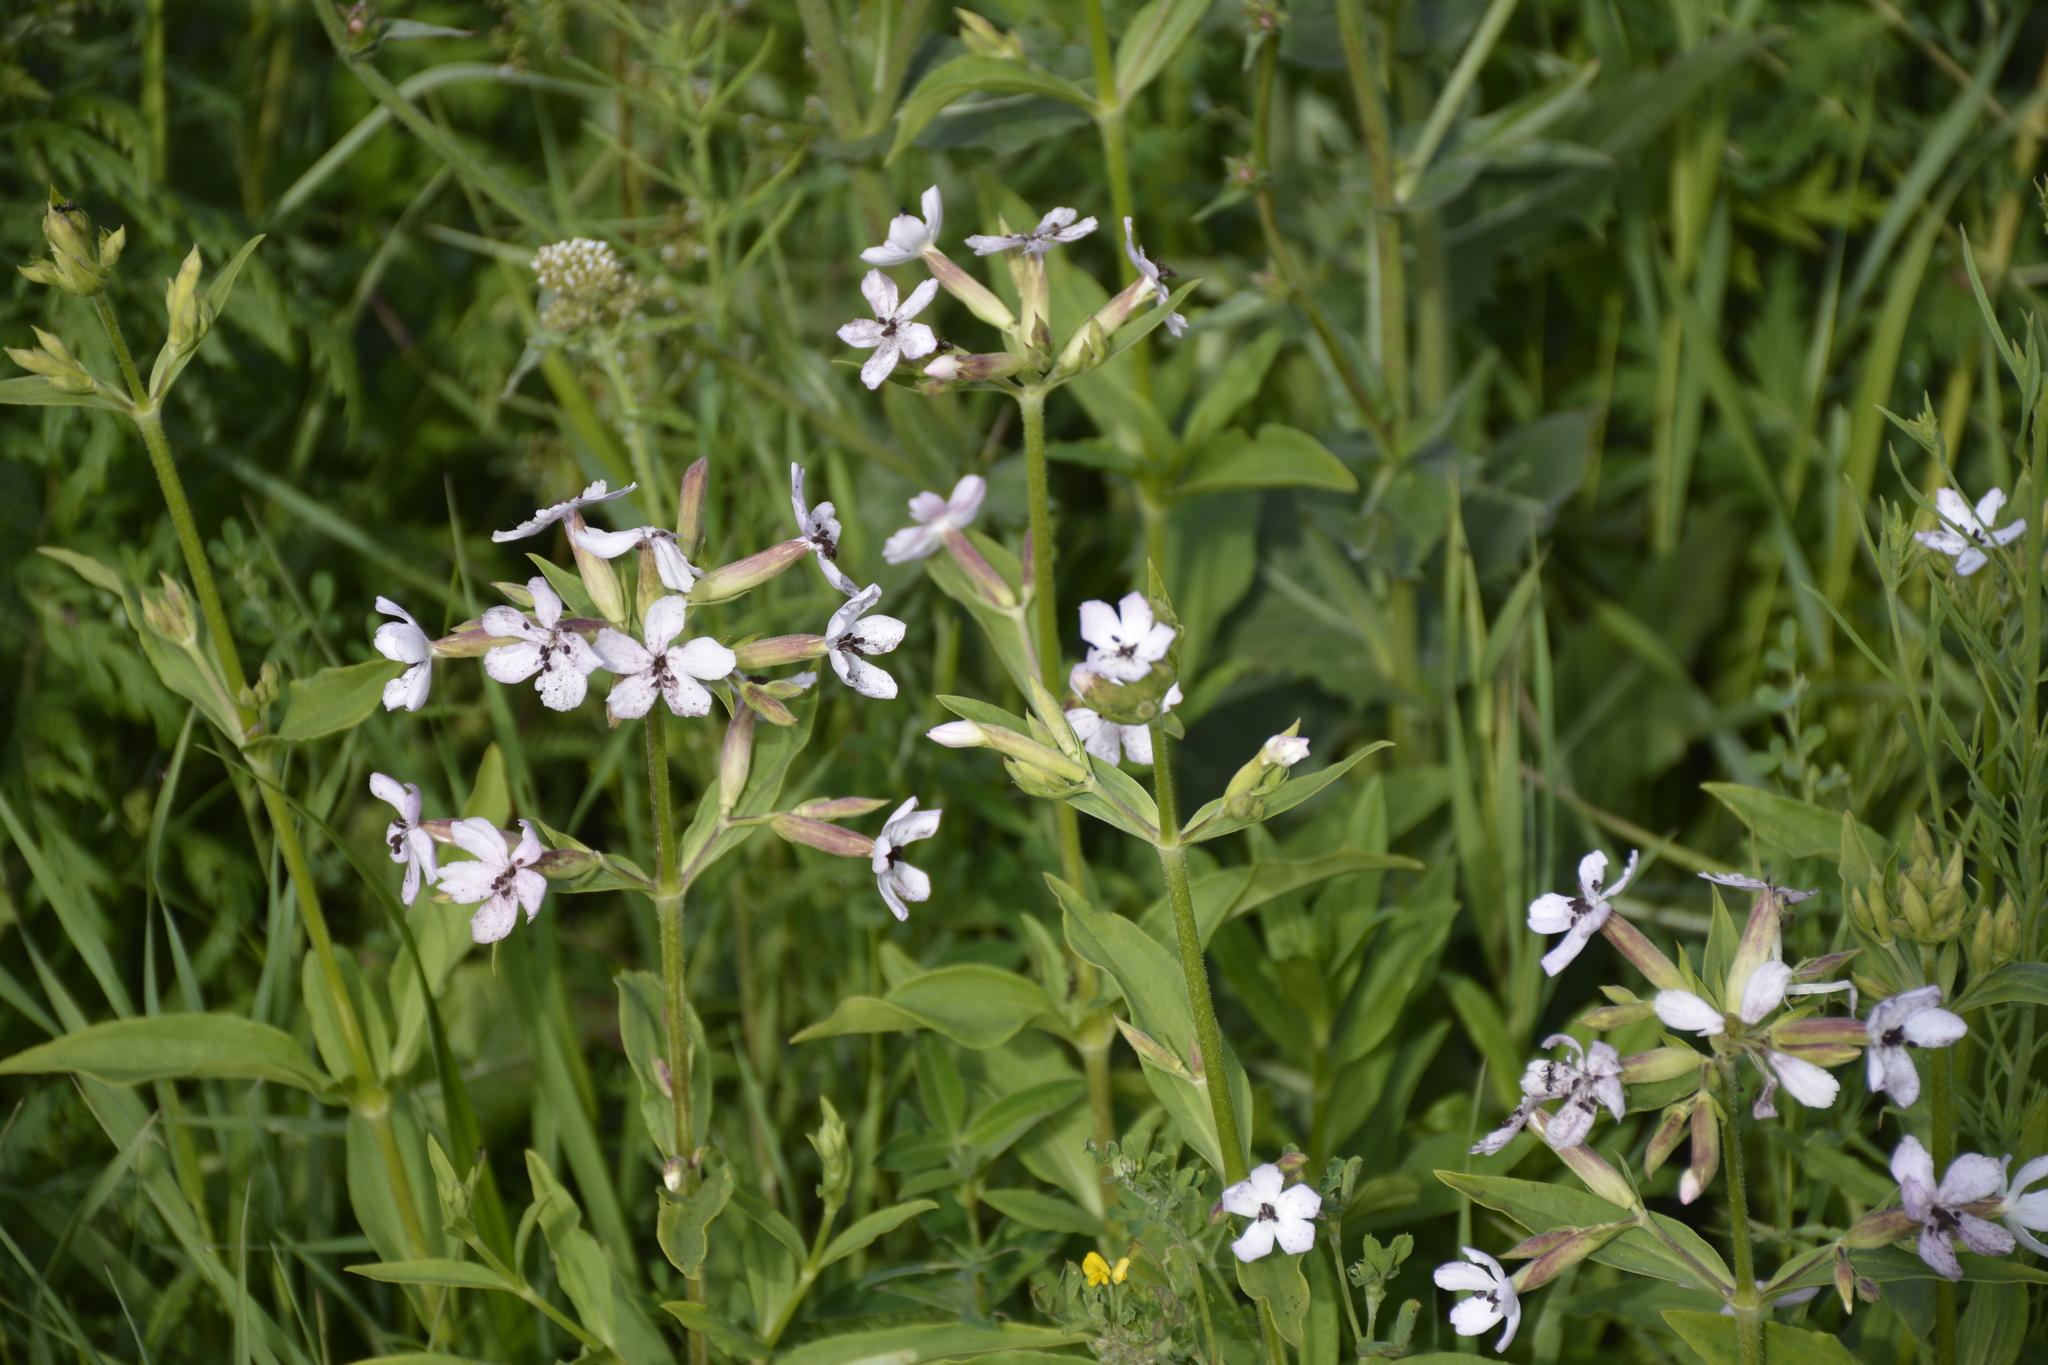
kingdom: Plantae
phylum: Tracheophyta
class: Magnoliopsida
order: Caryophyllales
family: Caryophyllaceae
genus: Saponaria
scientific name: Saponaria officinalis
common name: Soapwort
